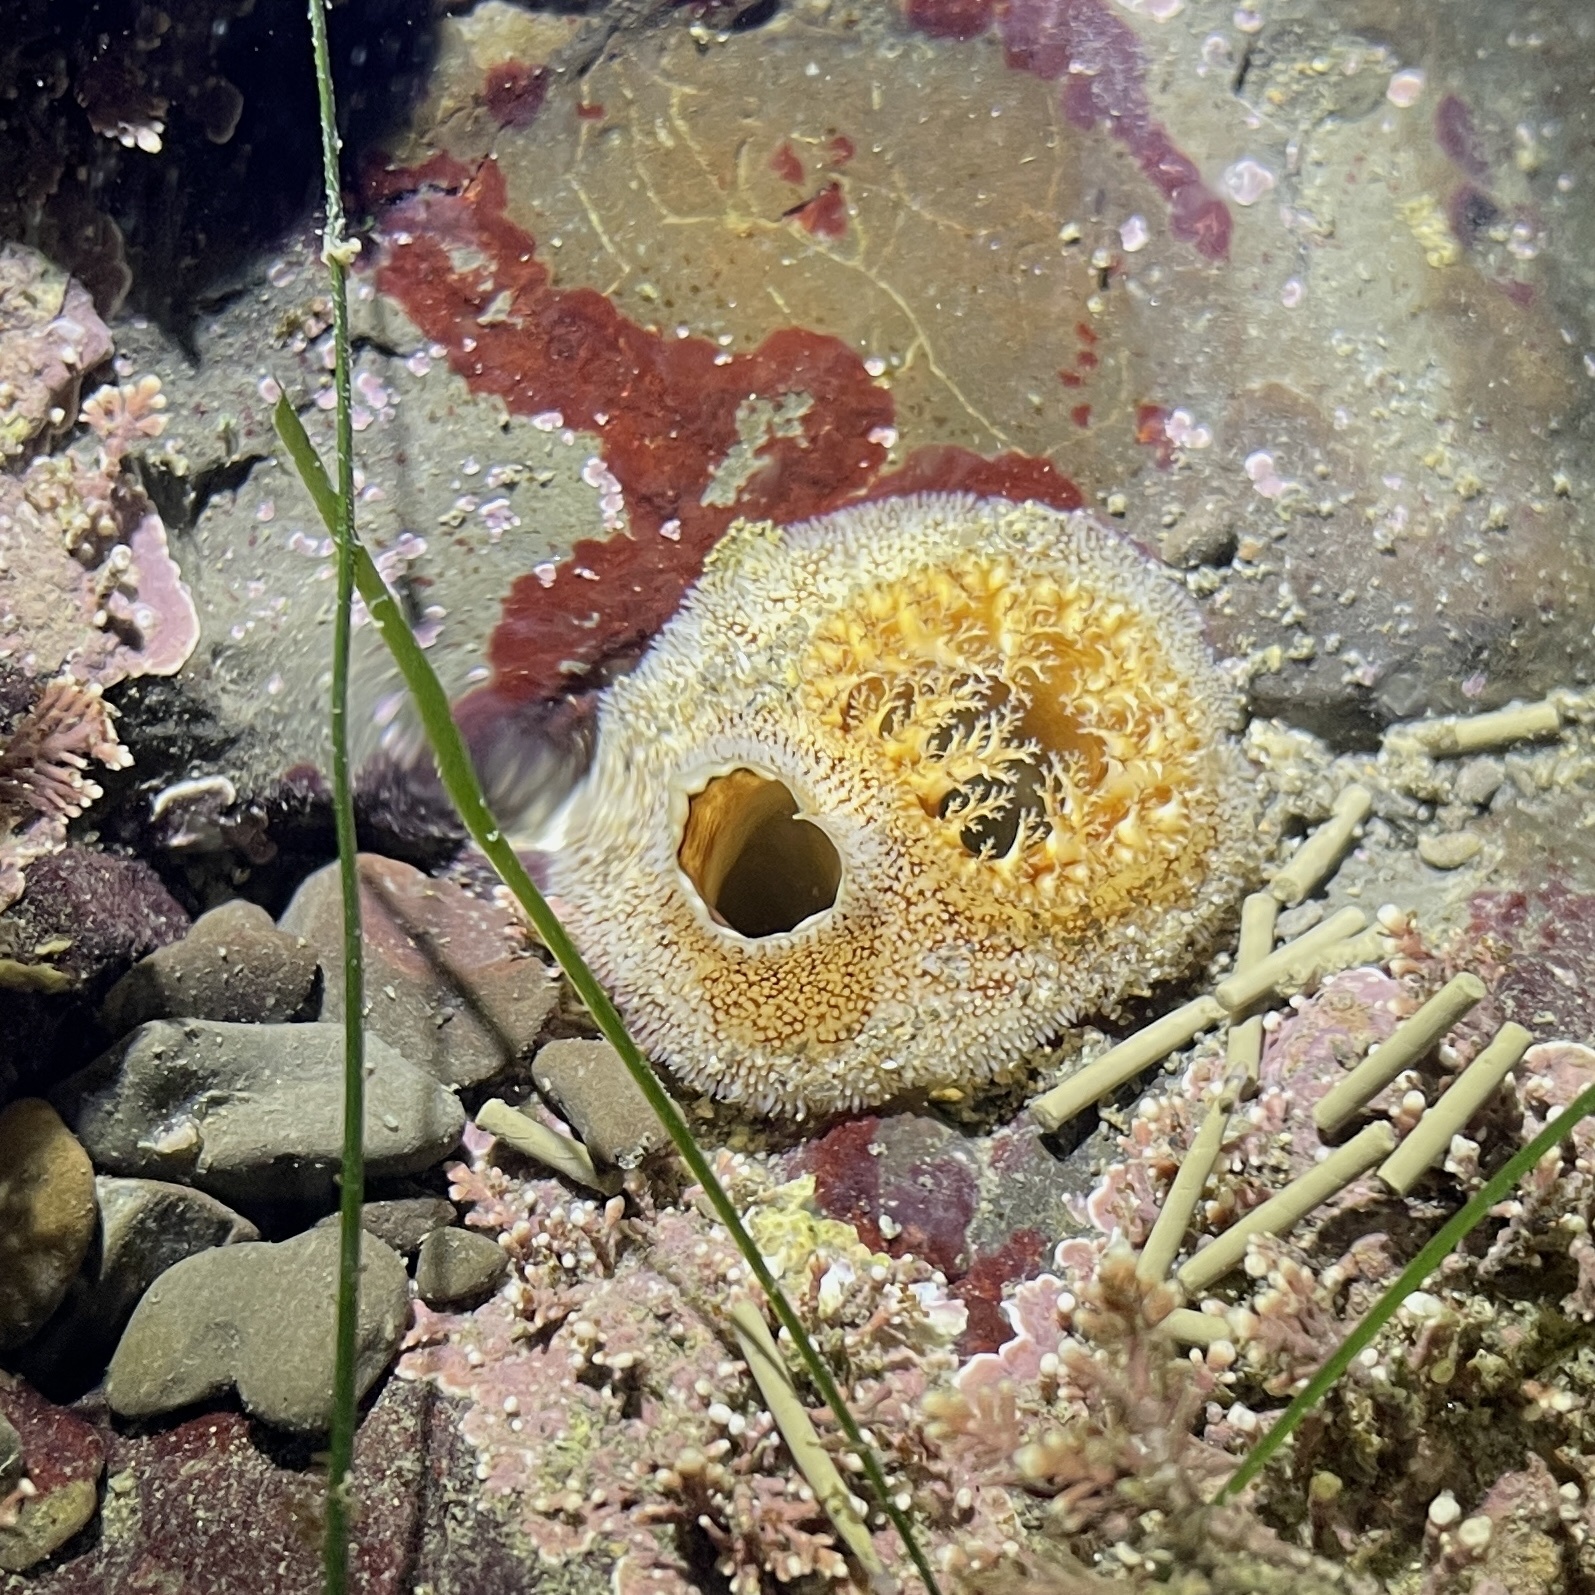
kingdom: Animalia
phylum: Mollusca
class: Bivalvia
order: Myida
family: Pholadidae
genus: Parapholas
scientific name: Parapholas californica
